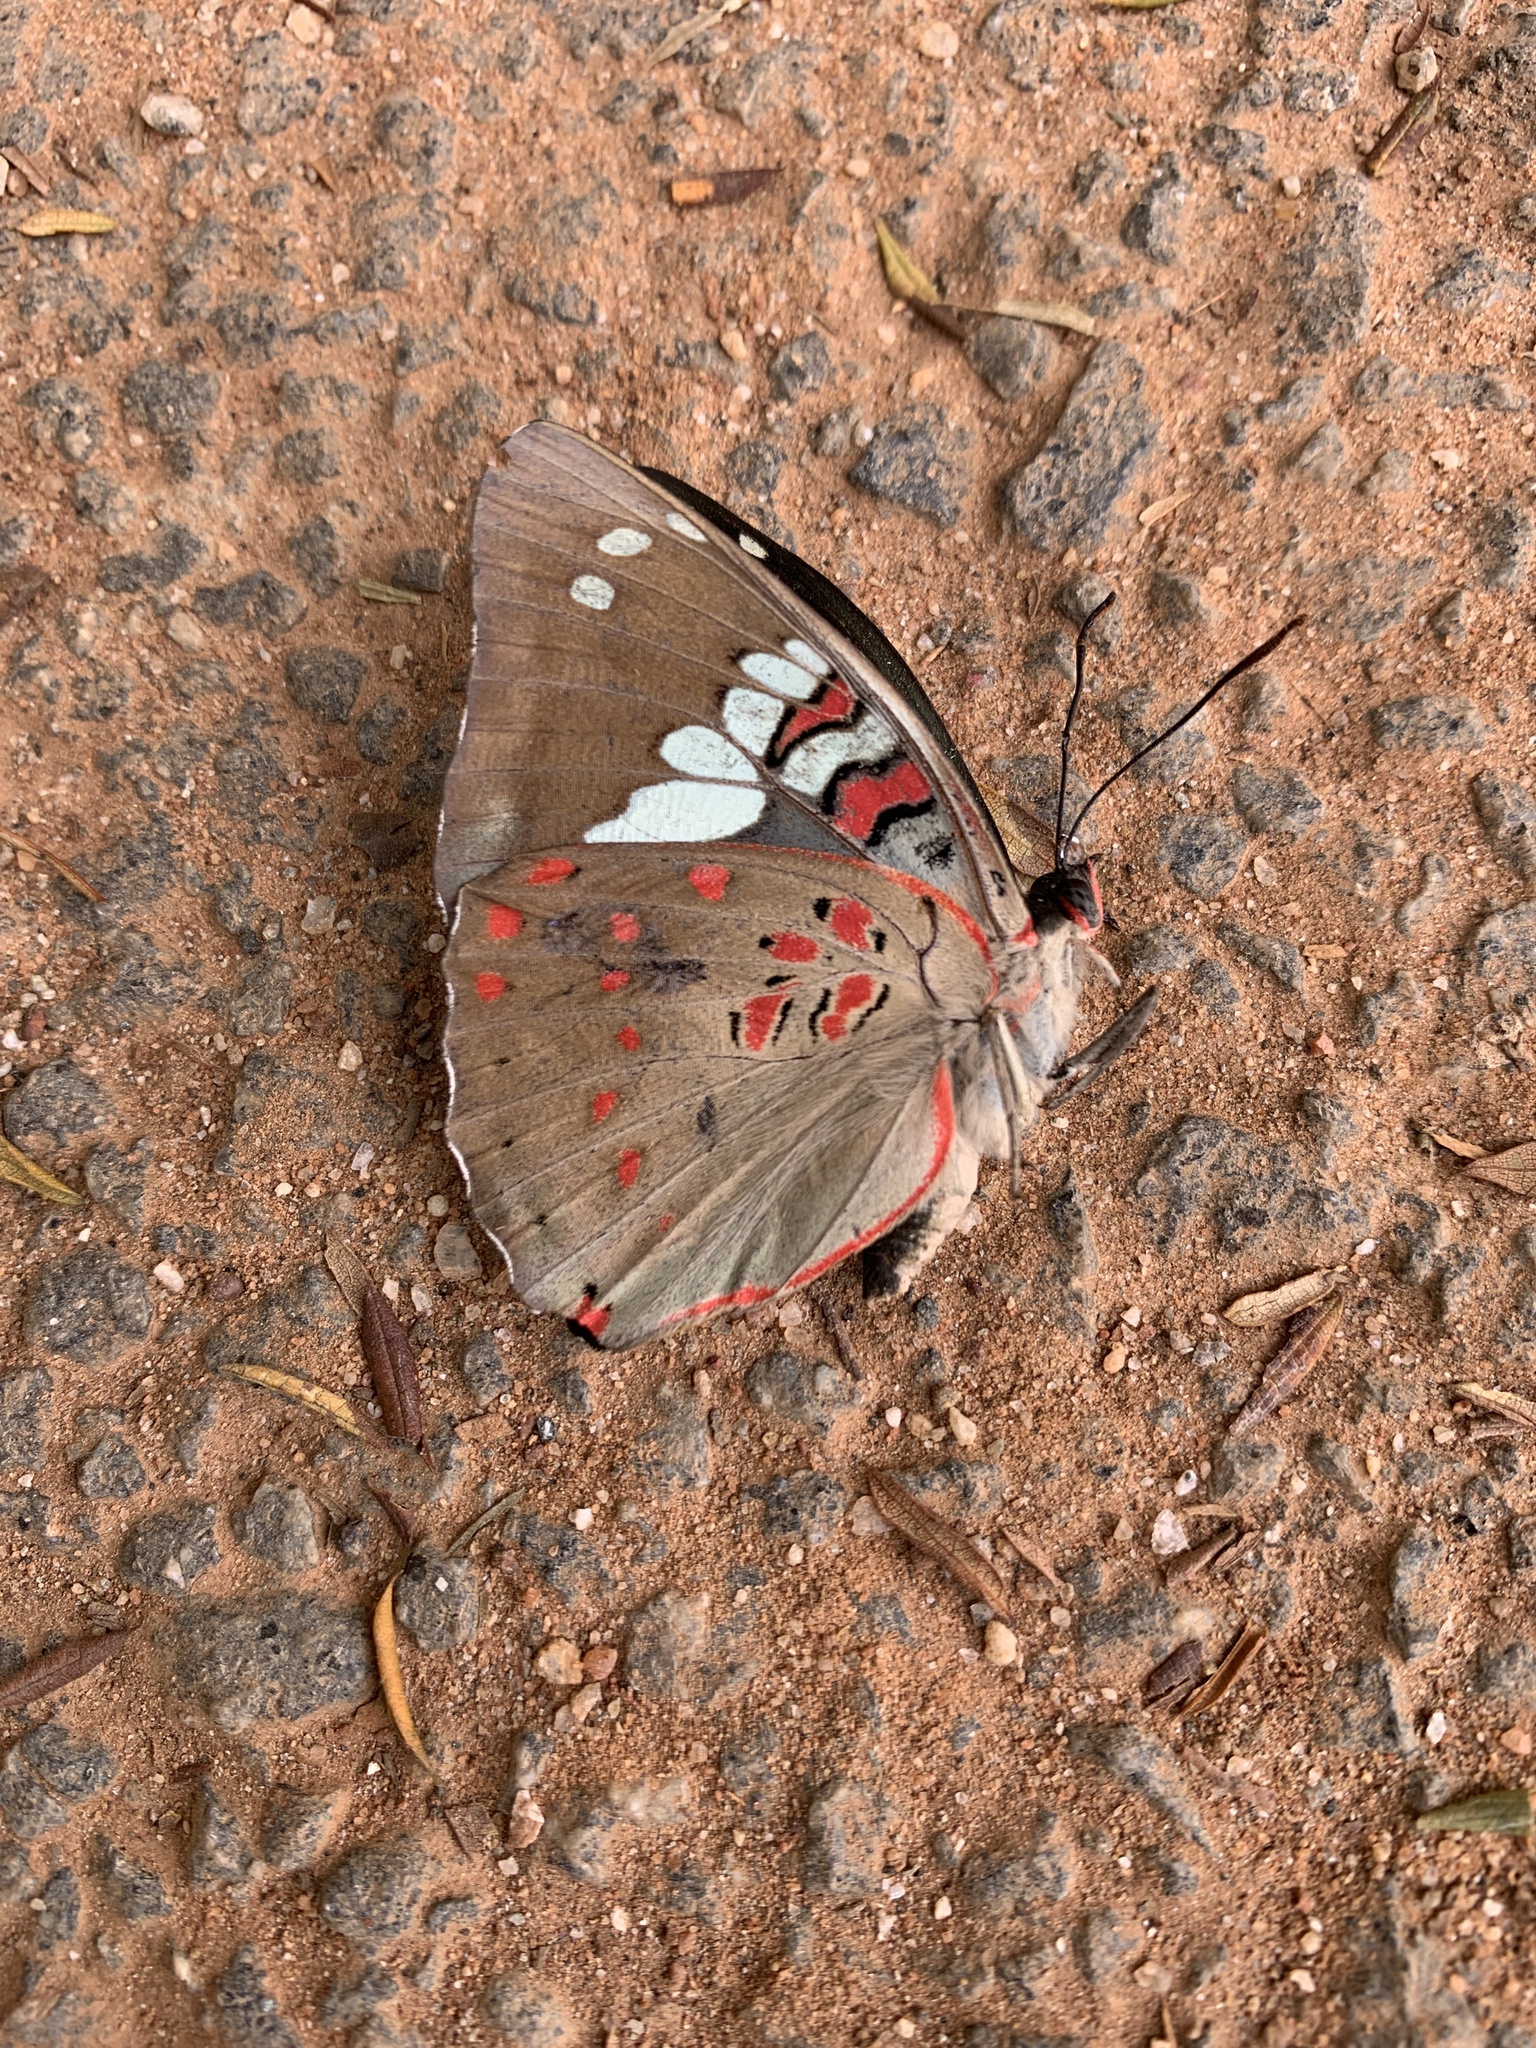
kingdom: Animalia
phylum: Arthropoda
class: Insecta
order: Lepidoptera
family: Nymphalidae
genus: Euthalia
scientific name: Euthalia lubentina
